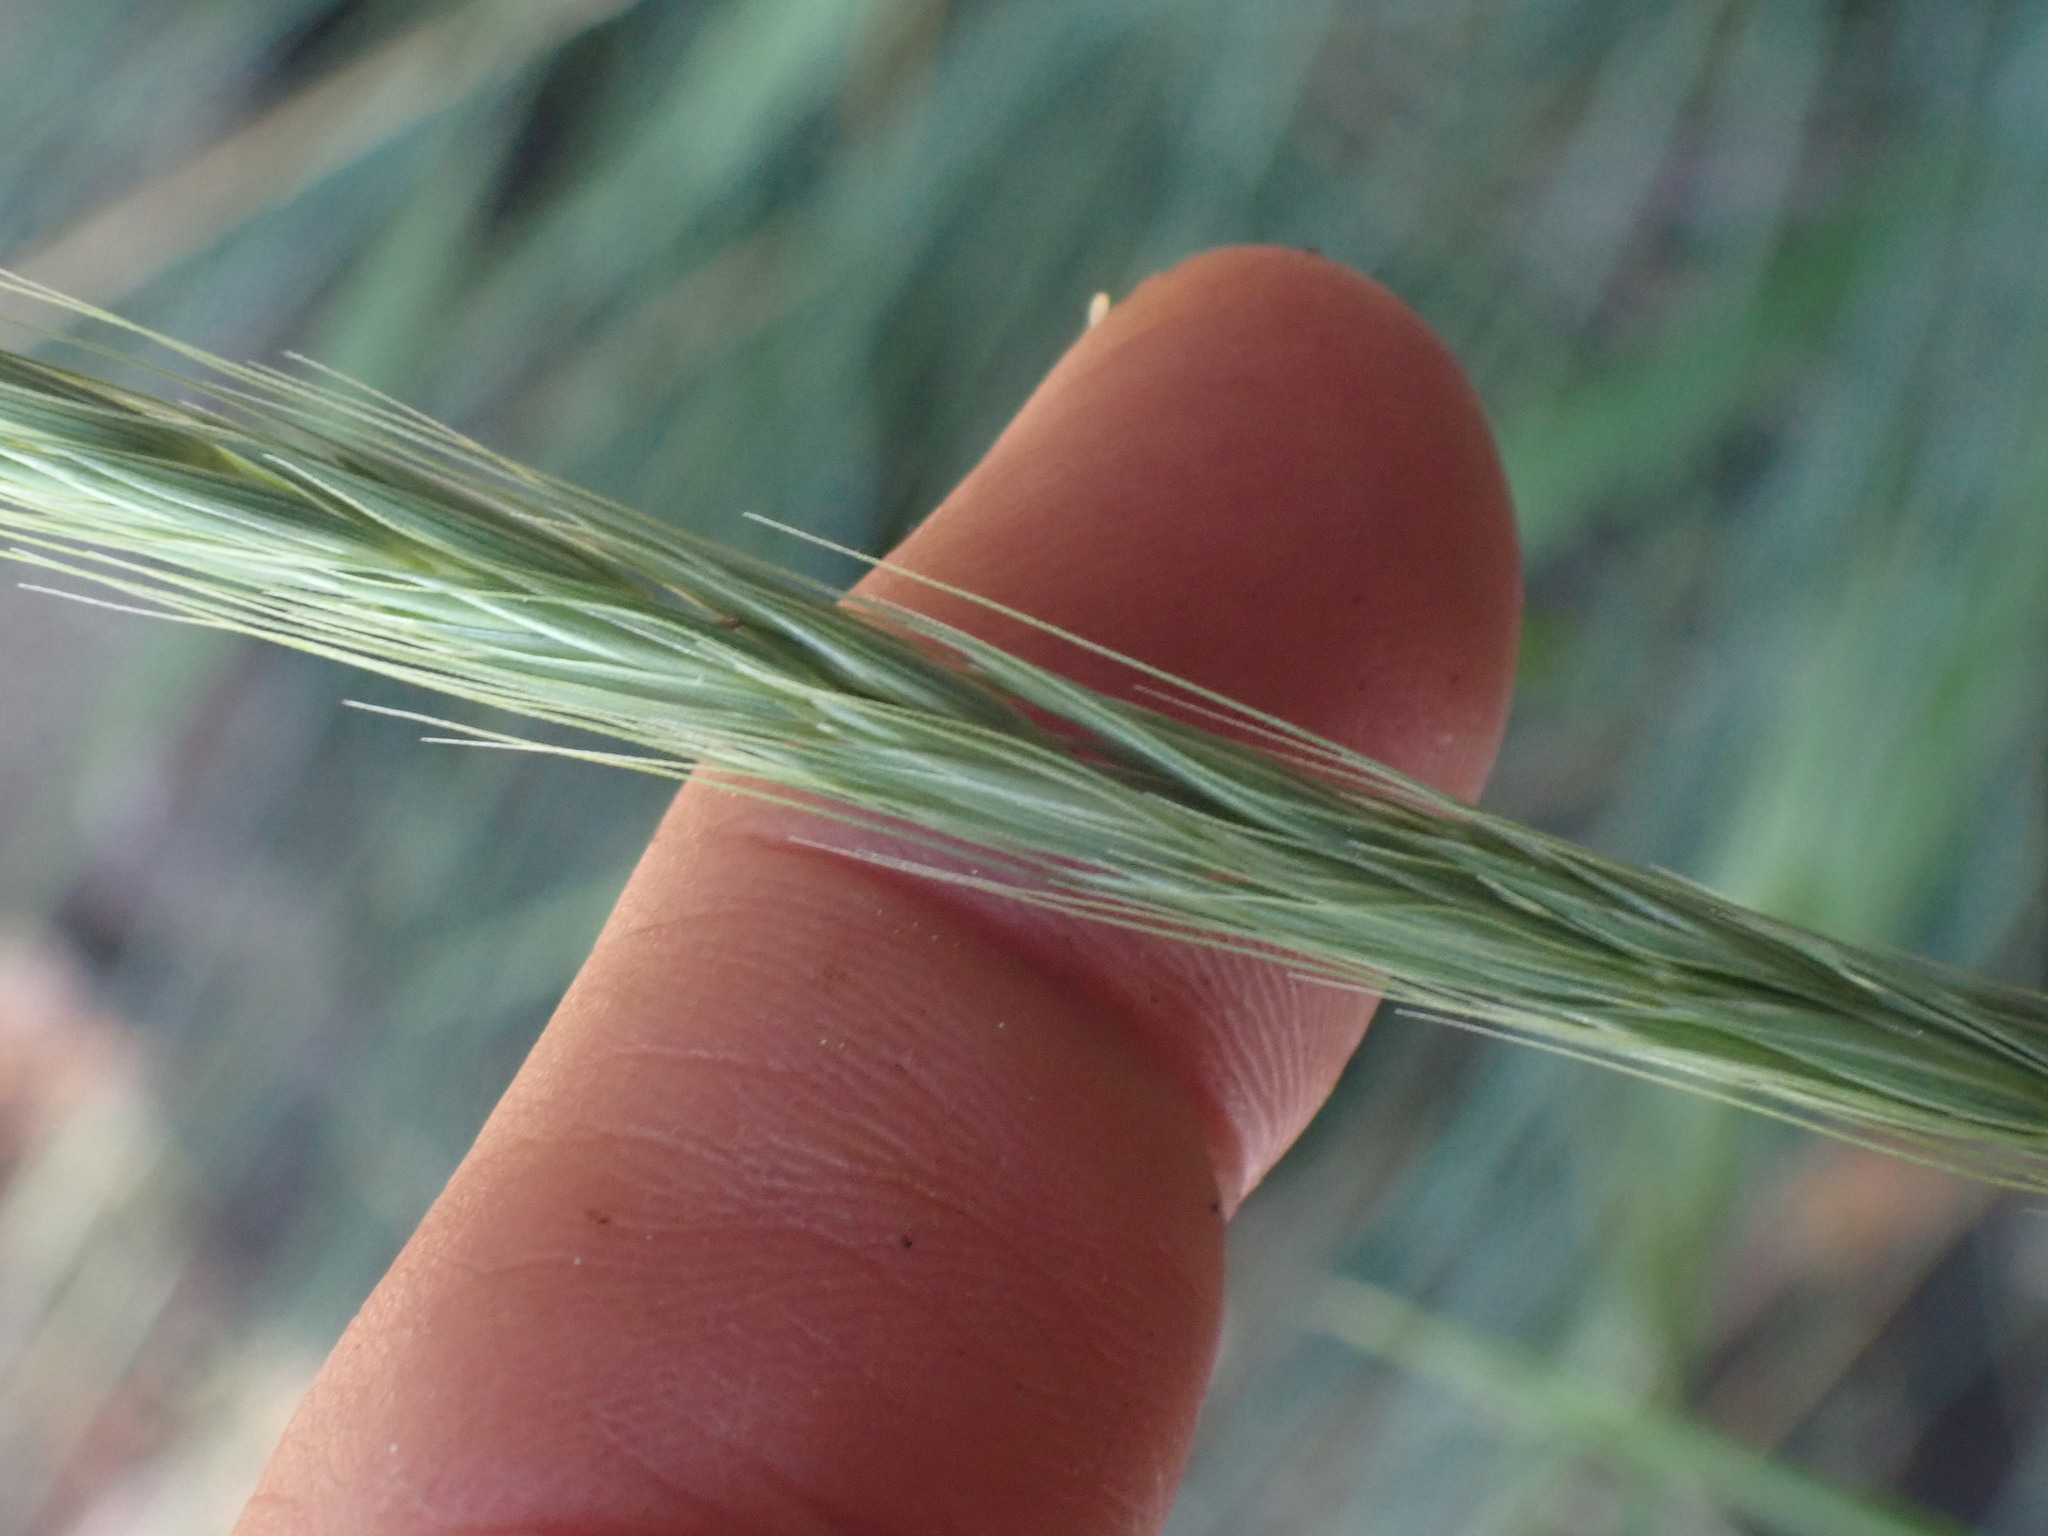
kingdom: Plantae
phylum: Tracheophyta
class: Liliopsida
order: Poales
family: Poaceae
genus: Elymus
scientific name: Elymus glaucus
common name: Blue wild rye
